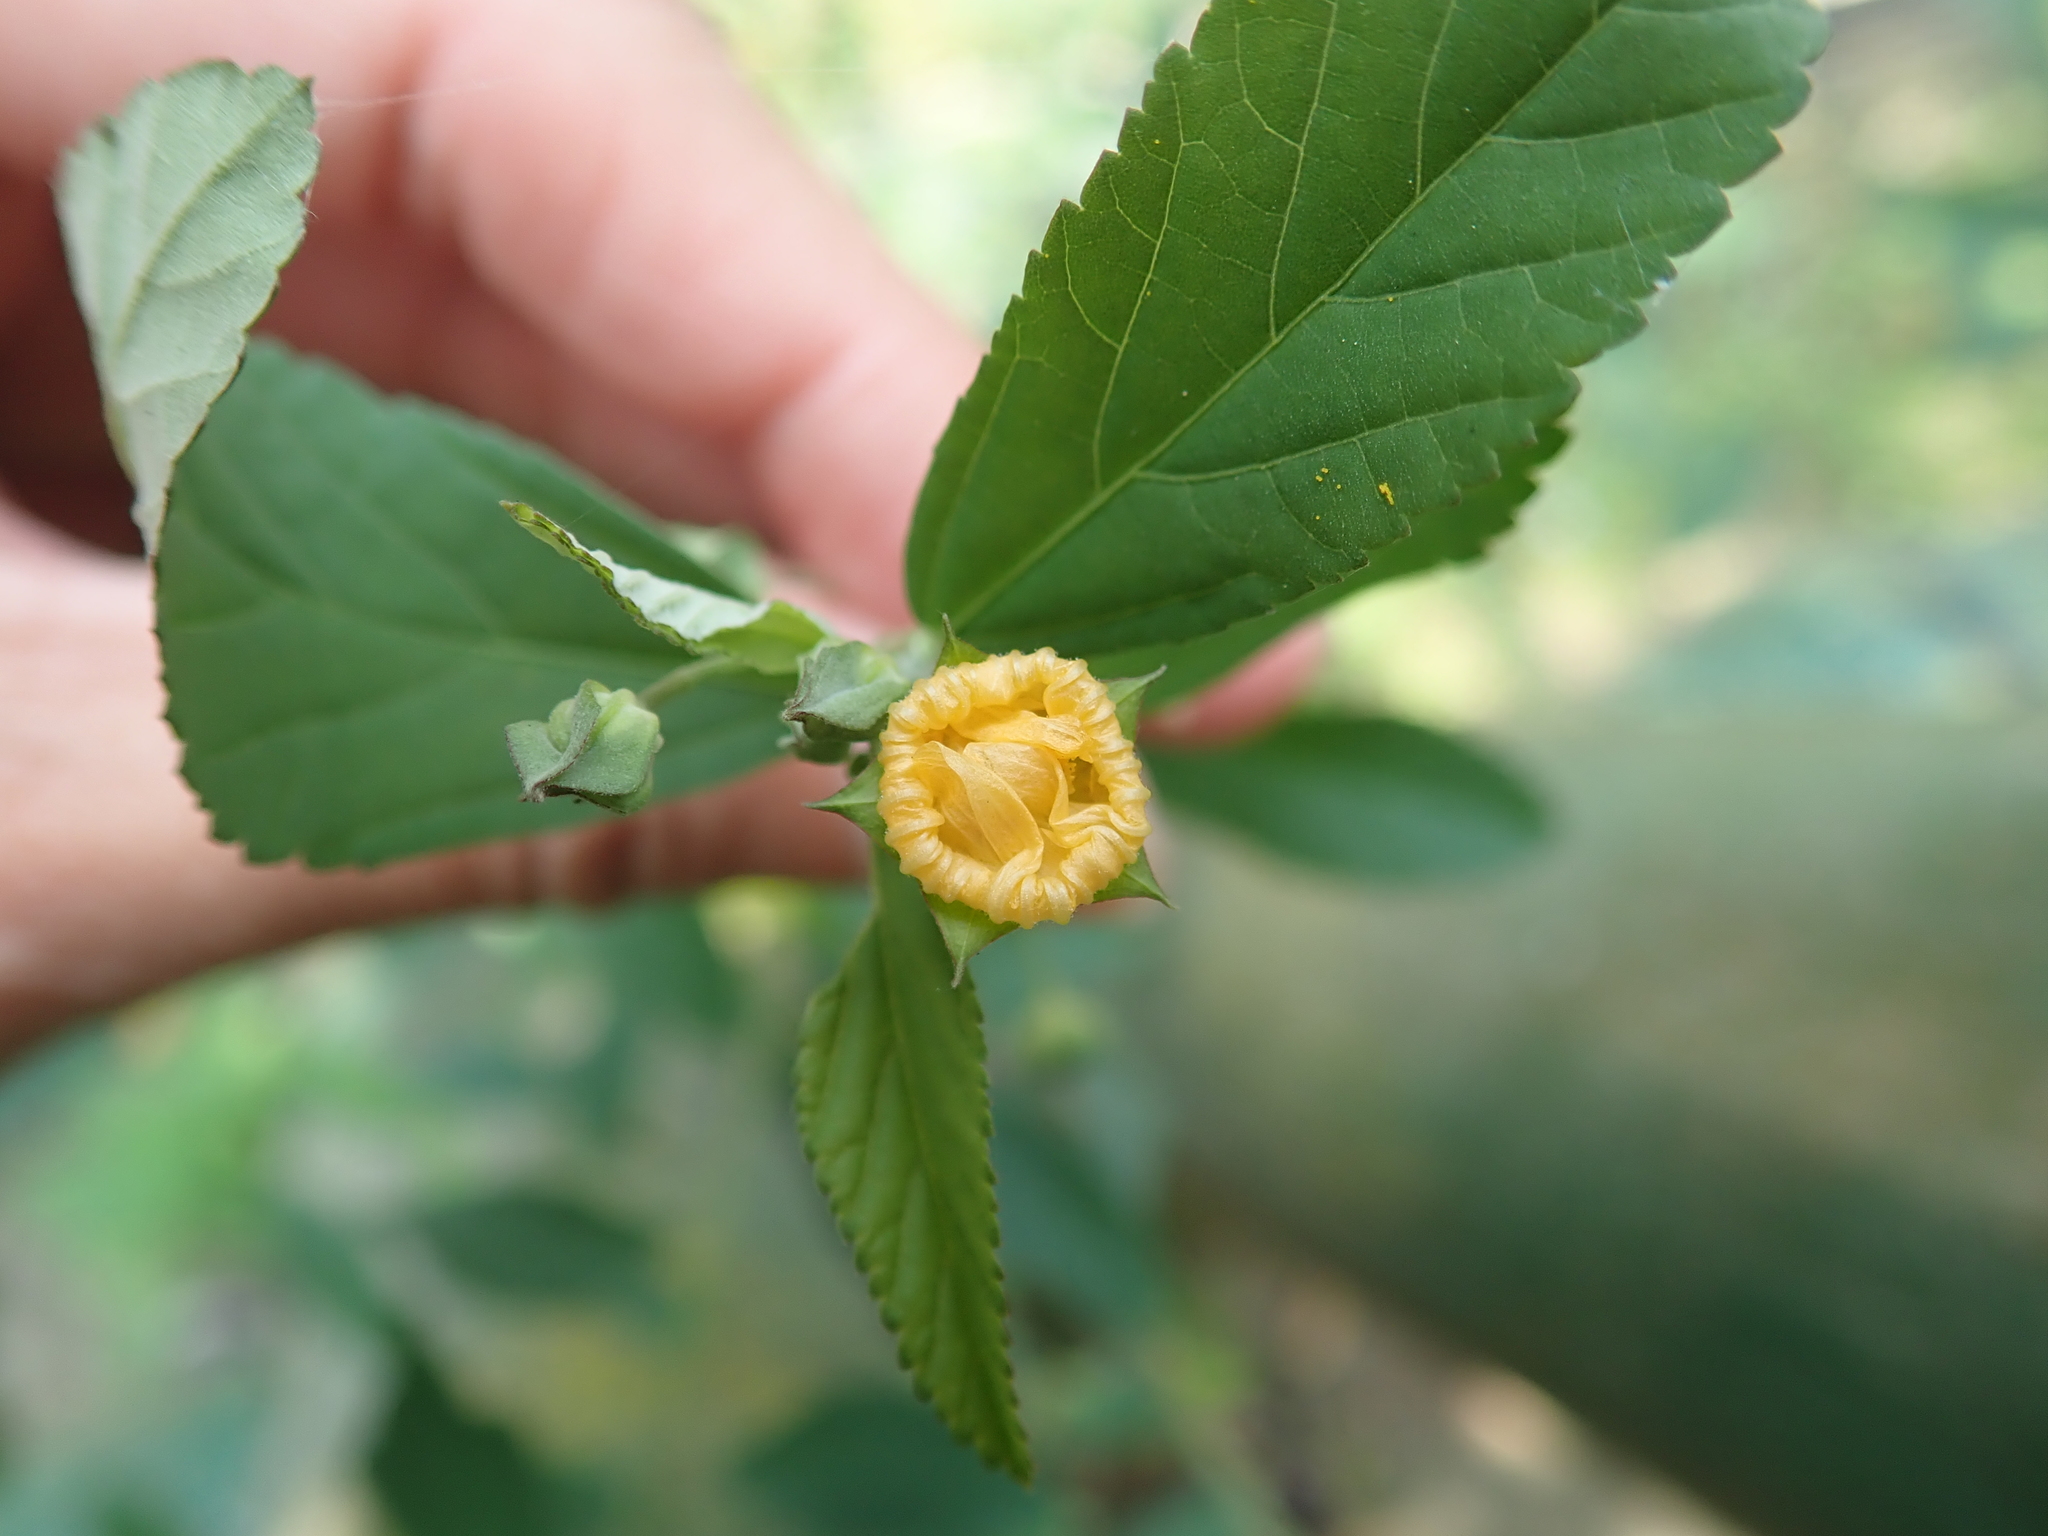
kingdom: Plantae
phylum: Tracheophyta
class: Magnoliopsida
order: Malvales
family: Malvaceae
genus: Sida
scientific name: Sida rhombifolia
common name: Queensland-hemp
